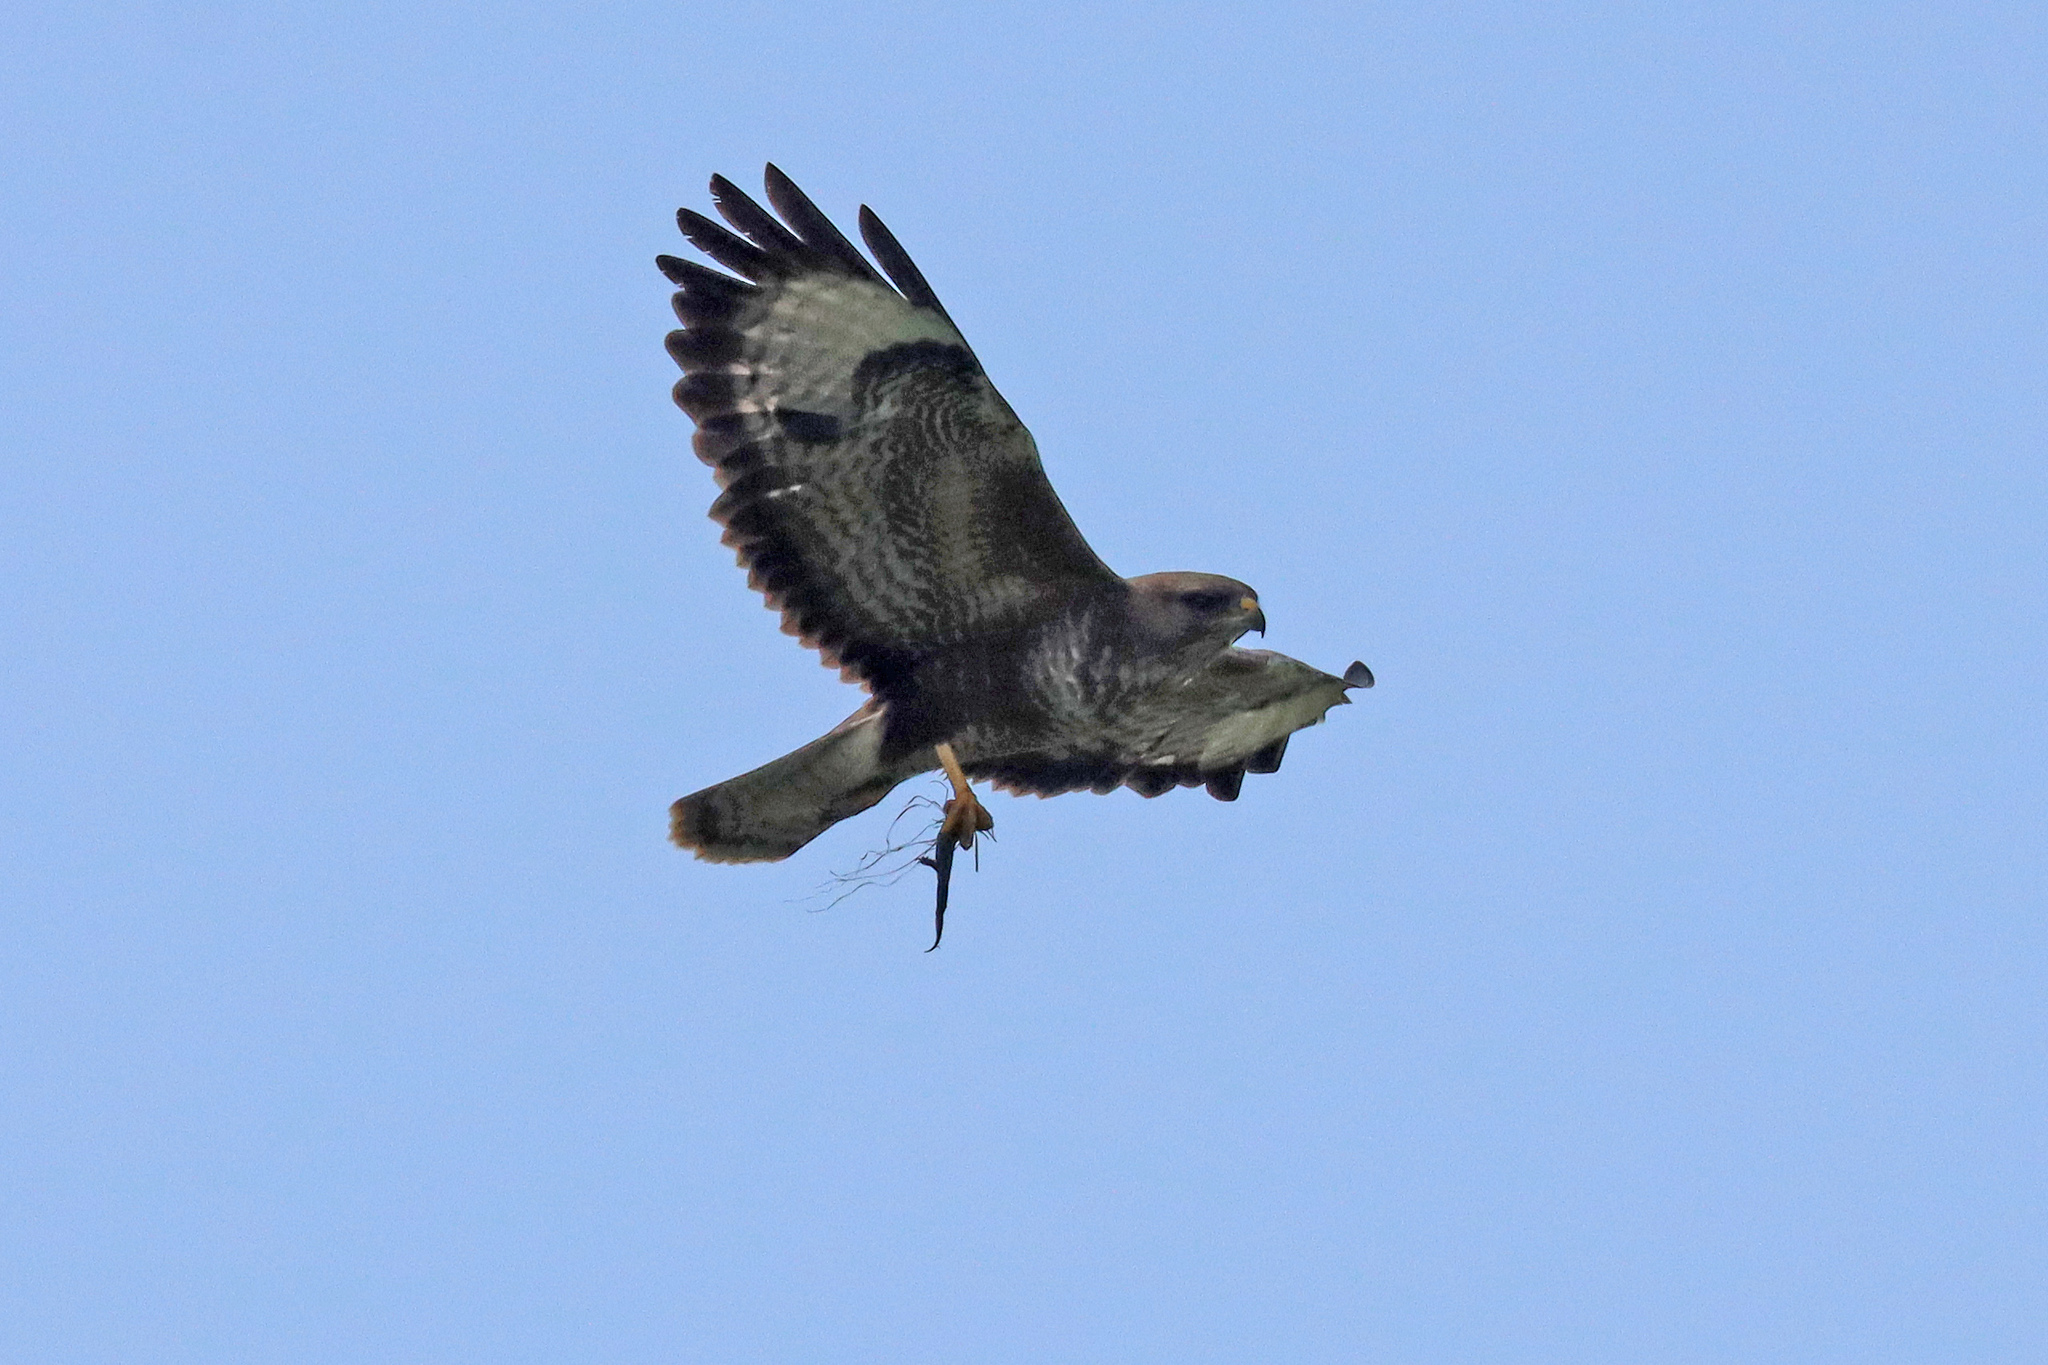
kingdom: Animalia
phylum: Chordata
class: Aves
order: Accipitriformes
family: Accipitridae
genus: Buteo
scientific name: Buteo buteo
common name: Common buzzard
